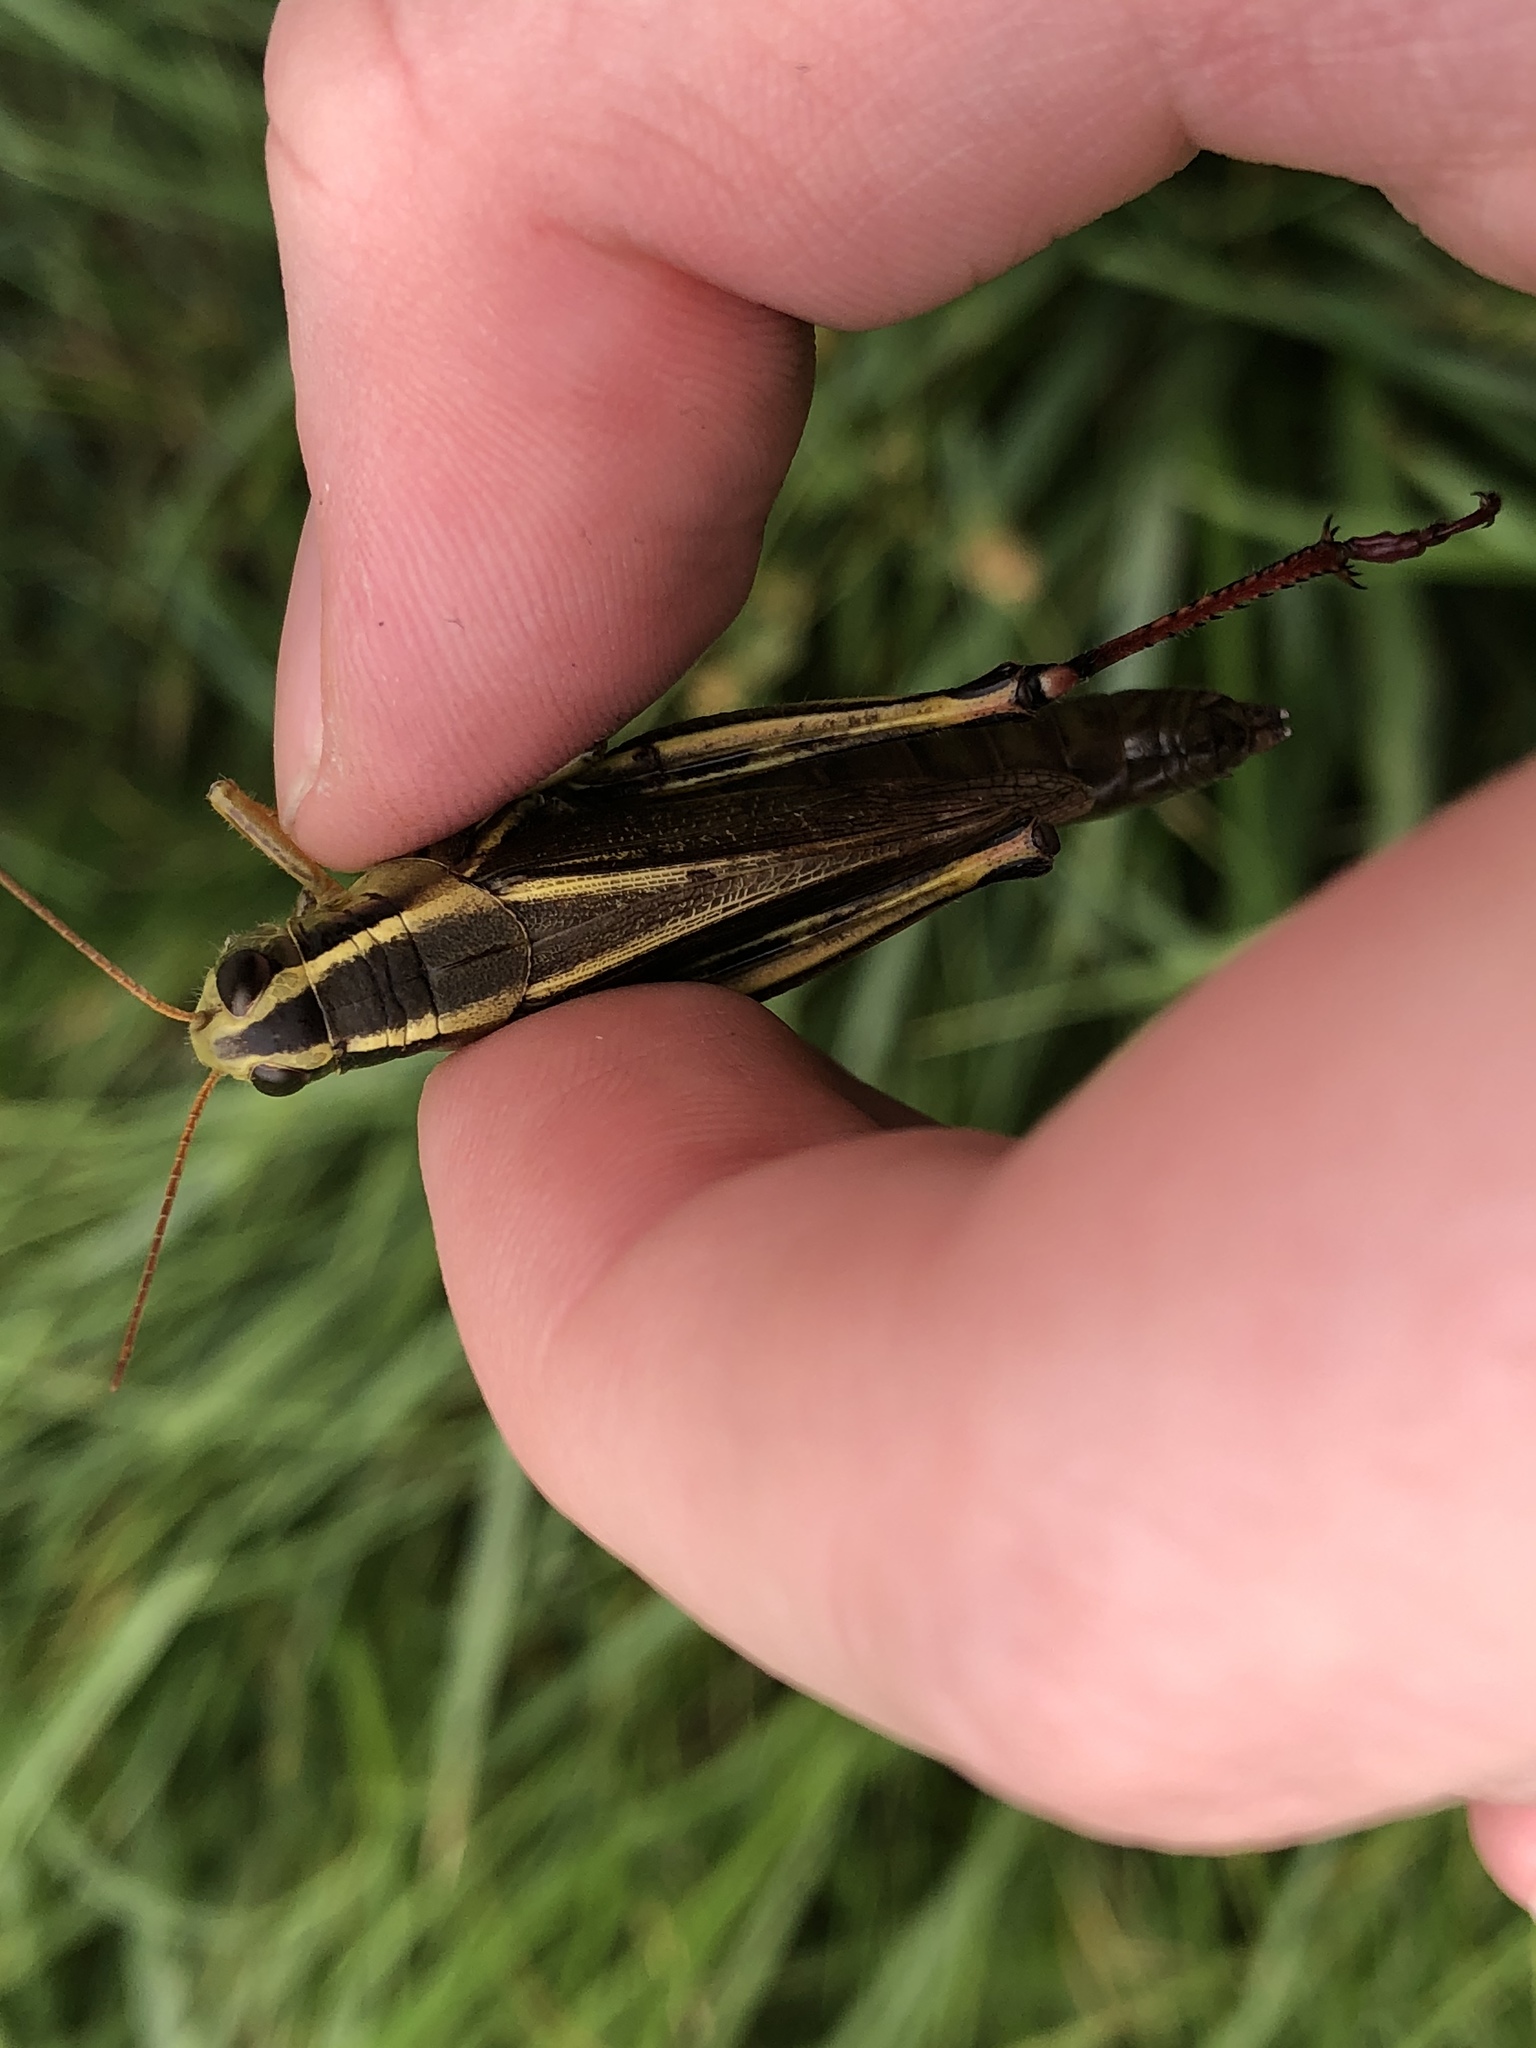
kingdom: Animalia
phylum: Arthropoda
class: Insecta
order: Orthoptera
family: Acrididae
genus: Melanoplus
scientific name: Melanoplus bivittatus
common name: Two-striped grasshopper
